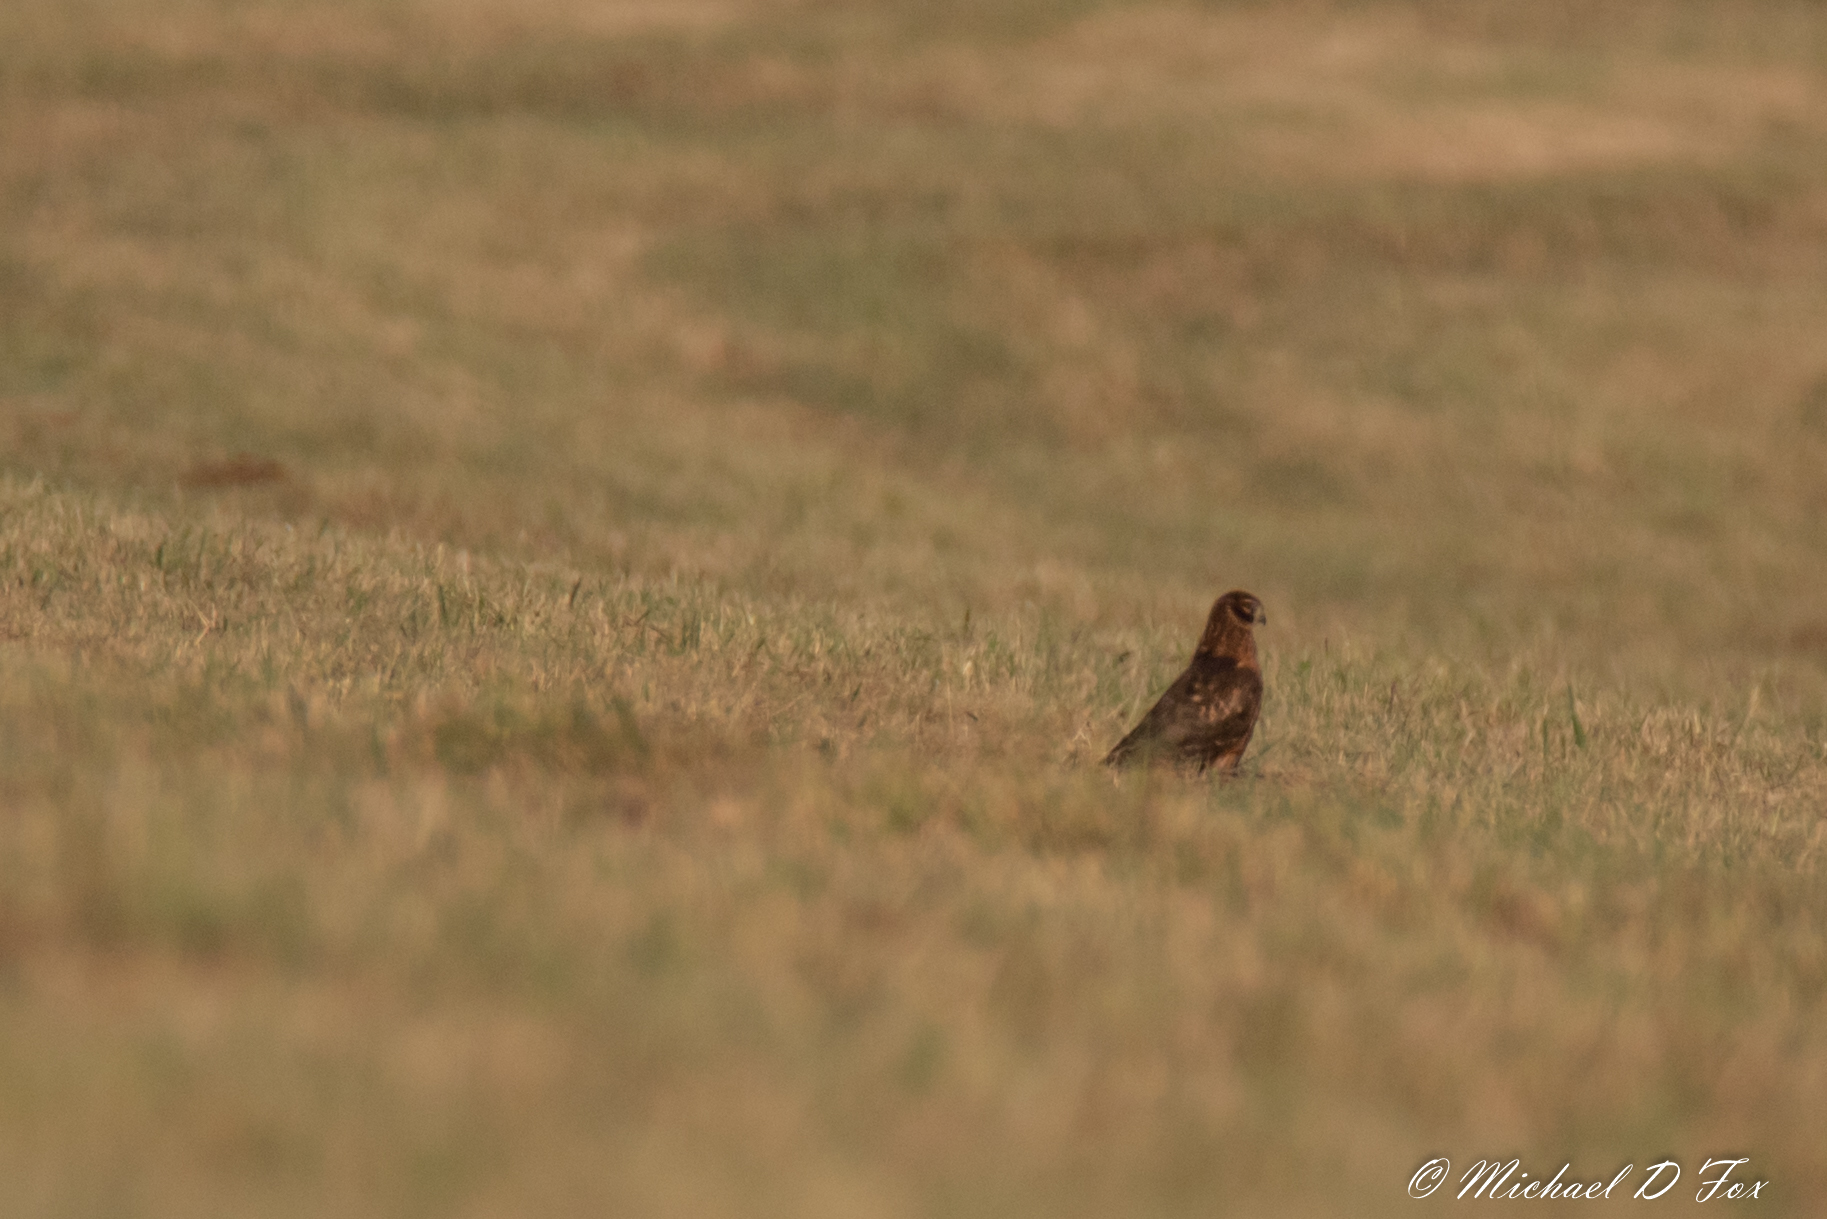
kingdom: Animalia
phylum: Chordata
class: Aves
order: Accipitriformes
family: Accipitridae
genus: Circus
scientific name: Circus cyaneus
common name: Hen harrier
